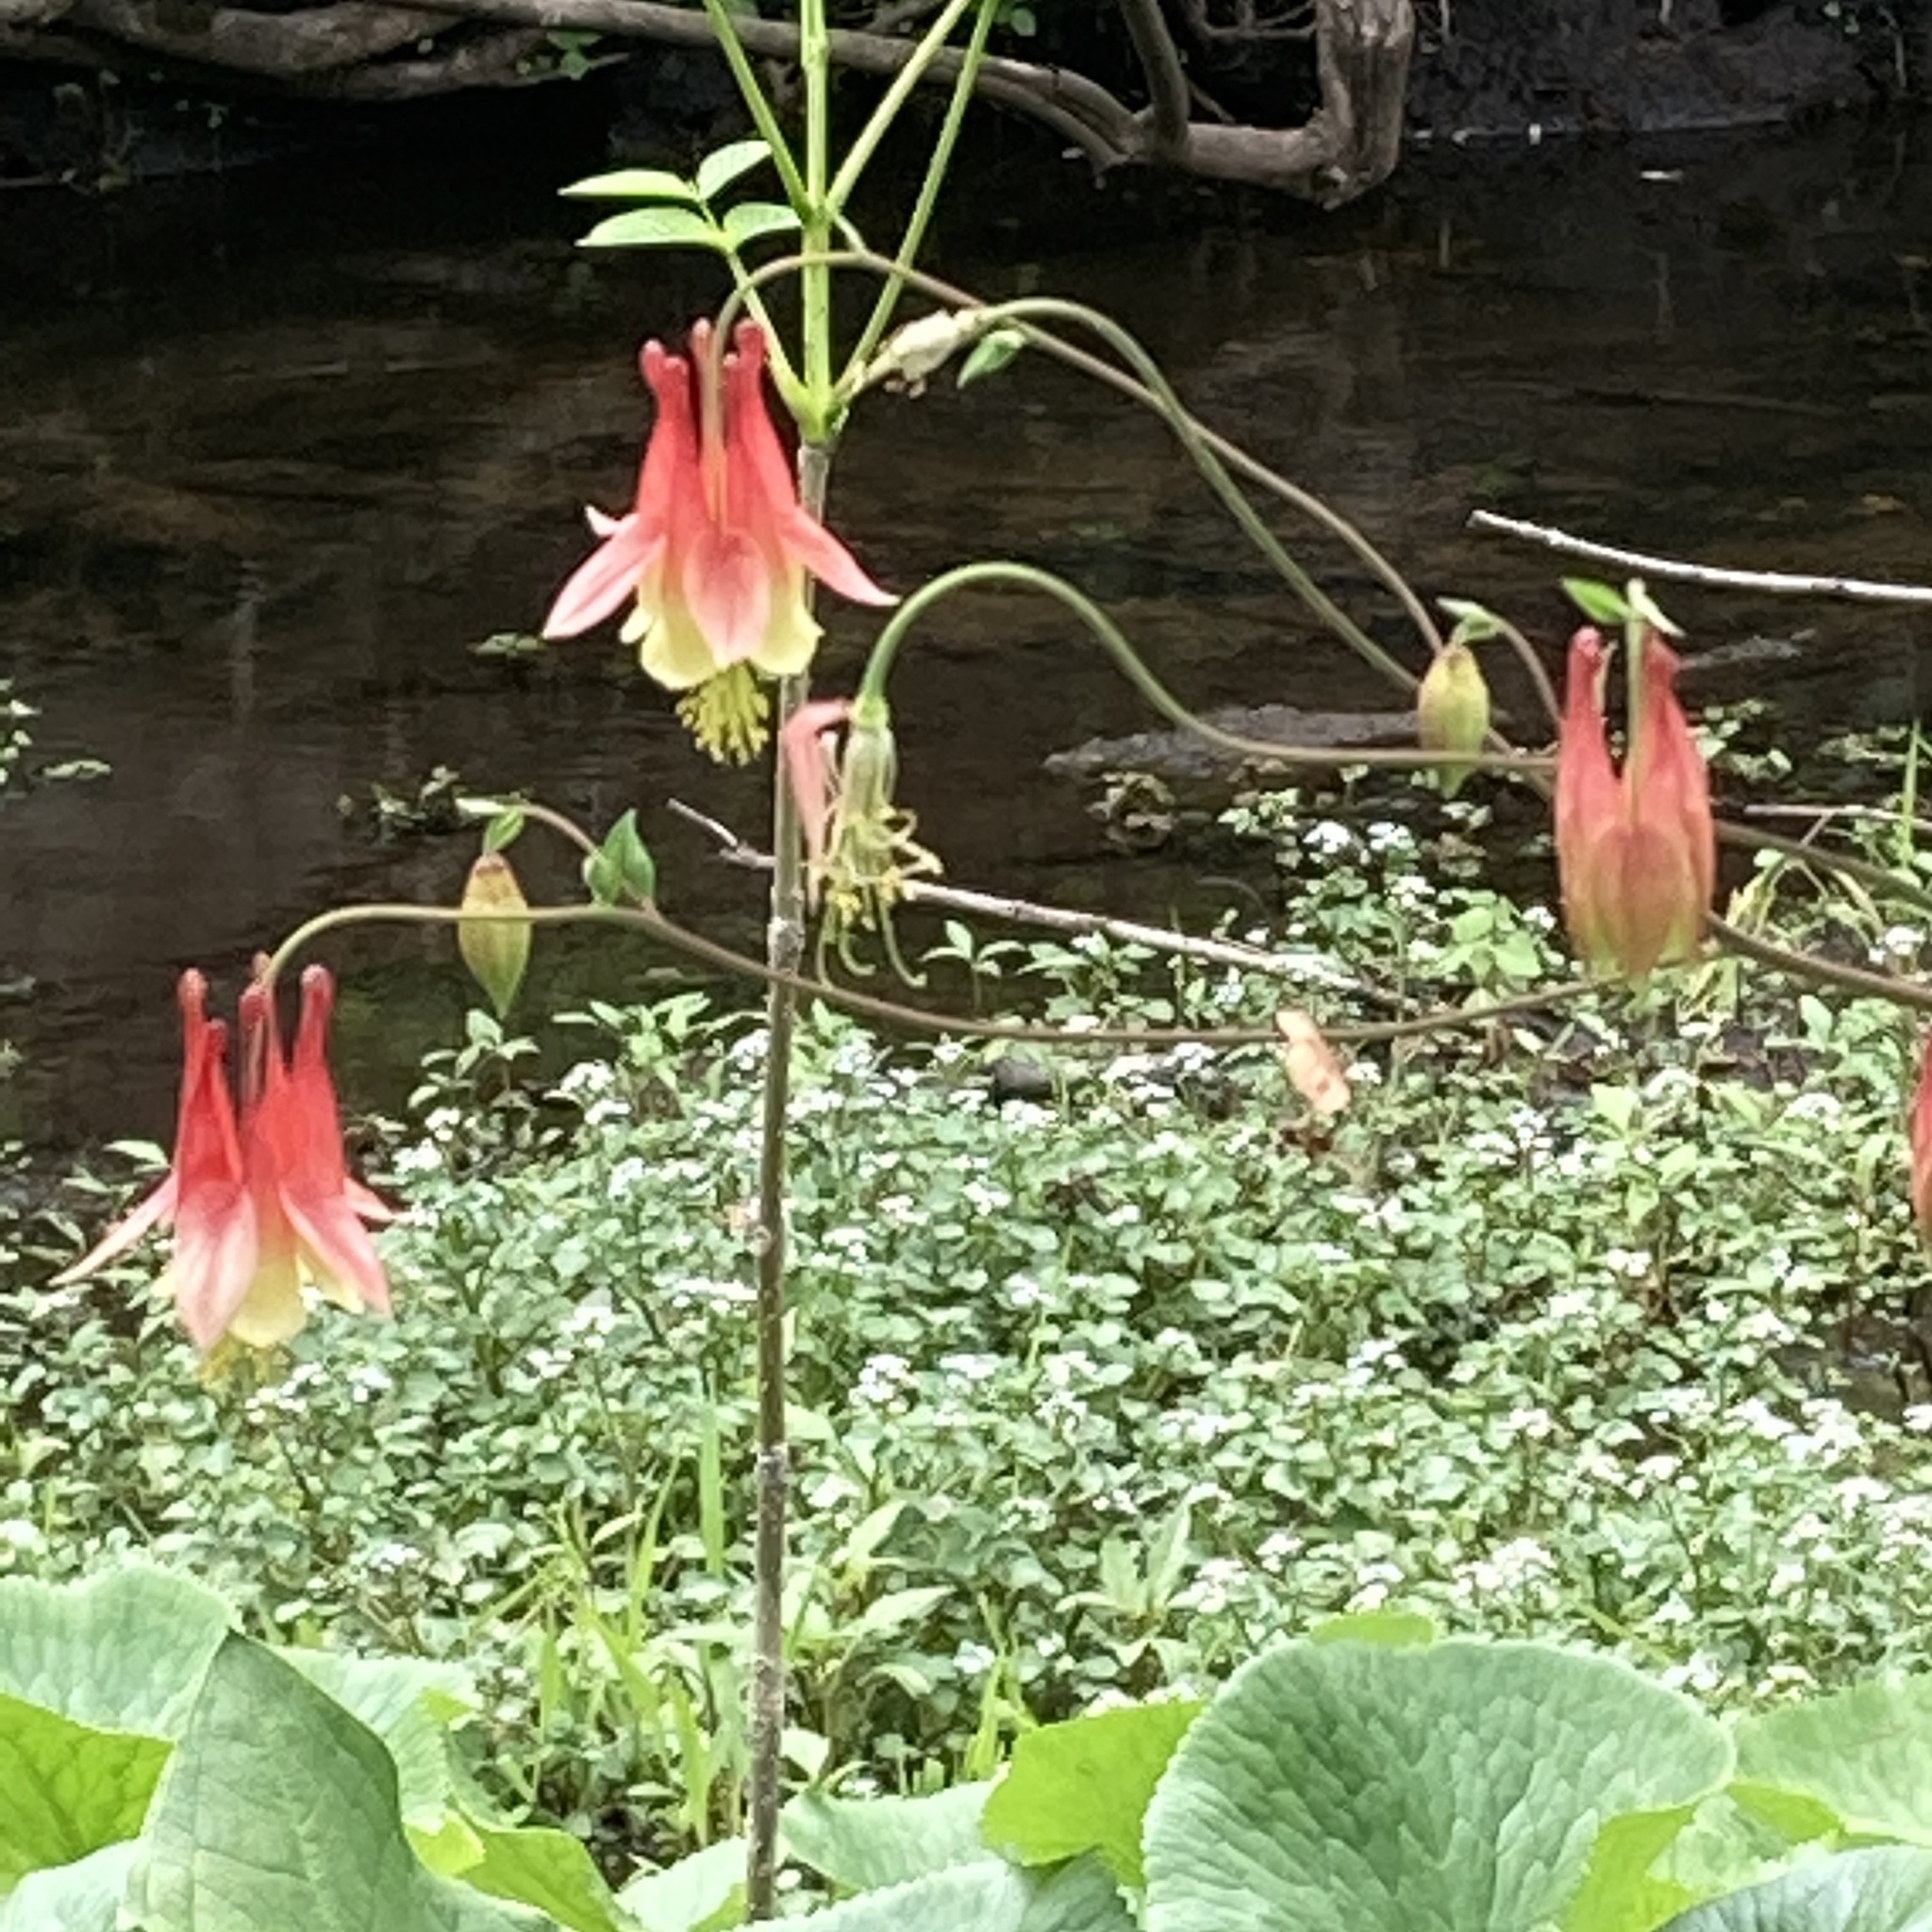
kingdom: Plantae
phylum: Tracheophyta
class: Magnoliopsida
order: Ranunculales
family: Ranunculaceae
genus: Aquilegia
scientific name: Aquilegia canadensis
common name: American columbine
